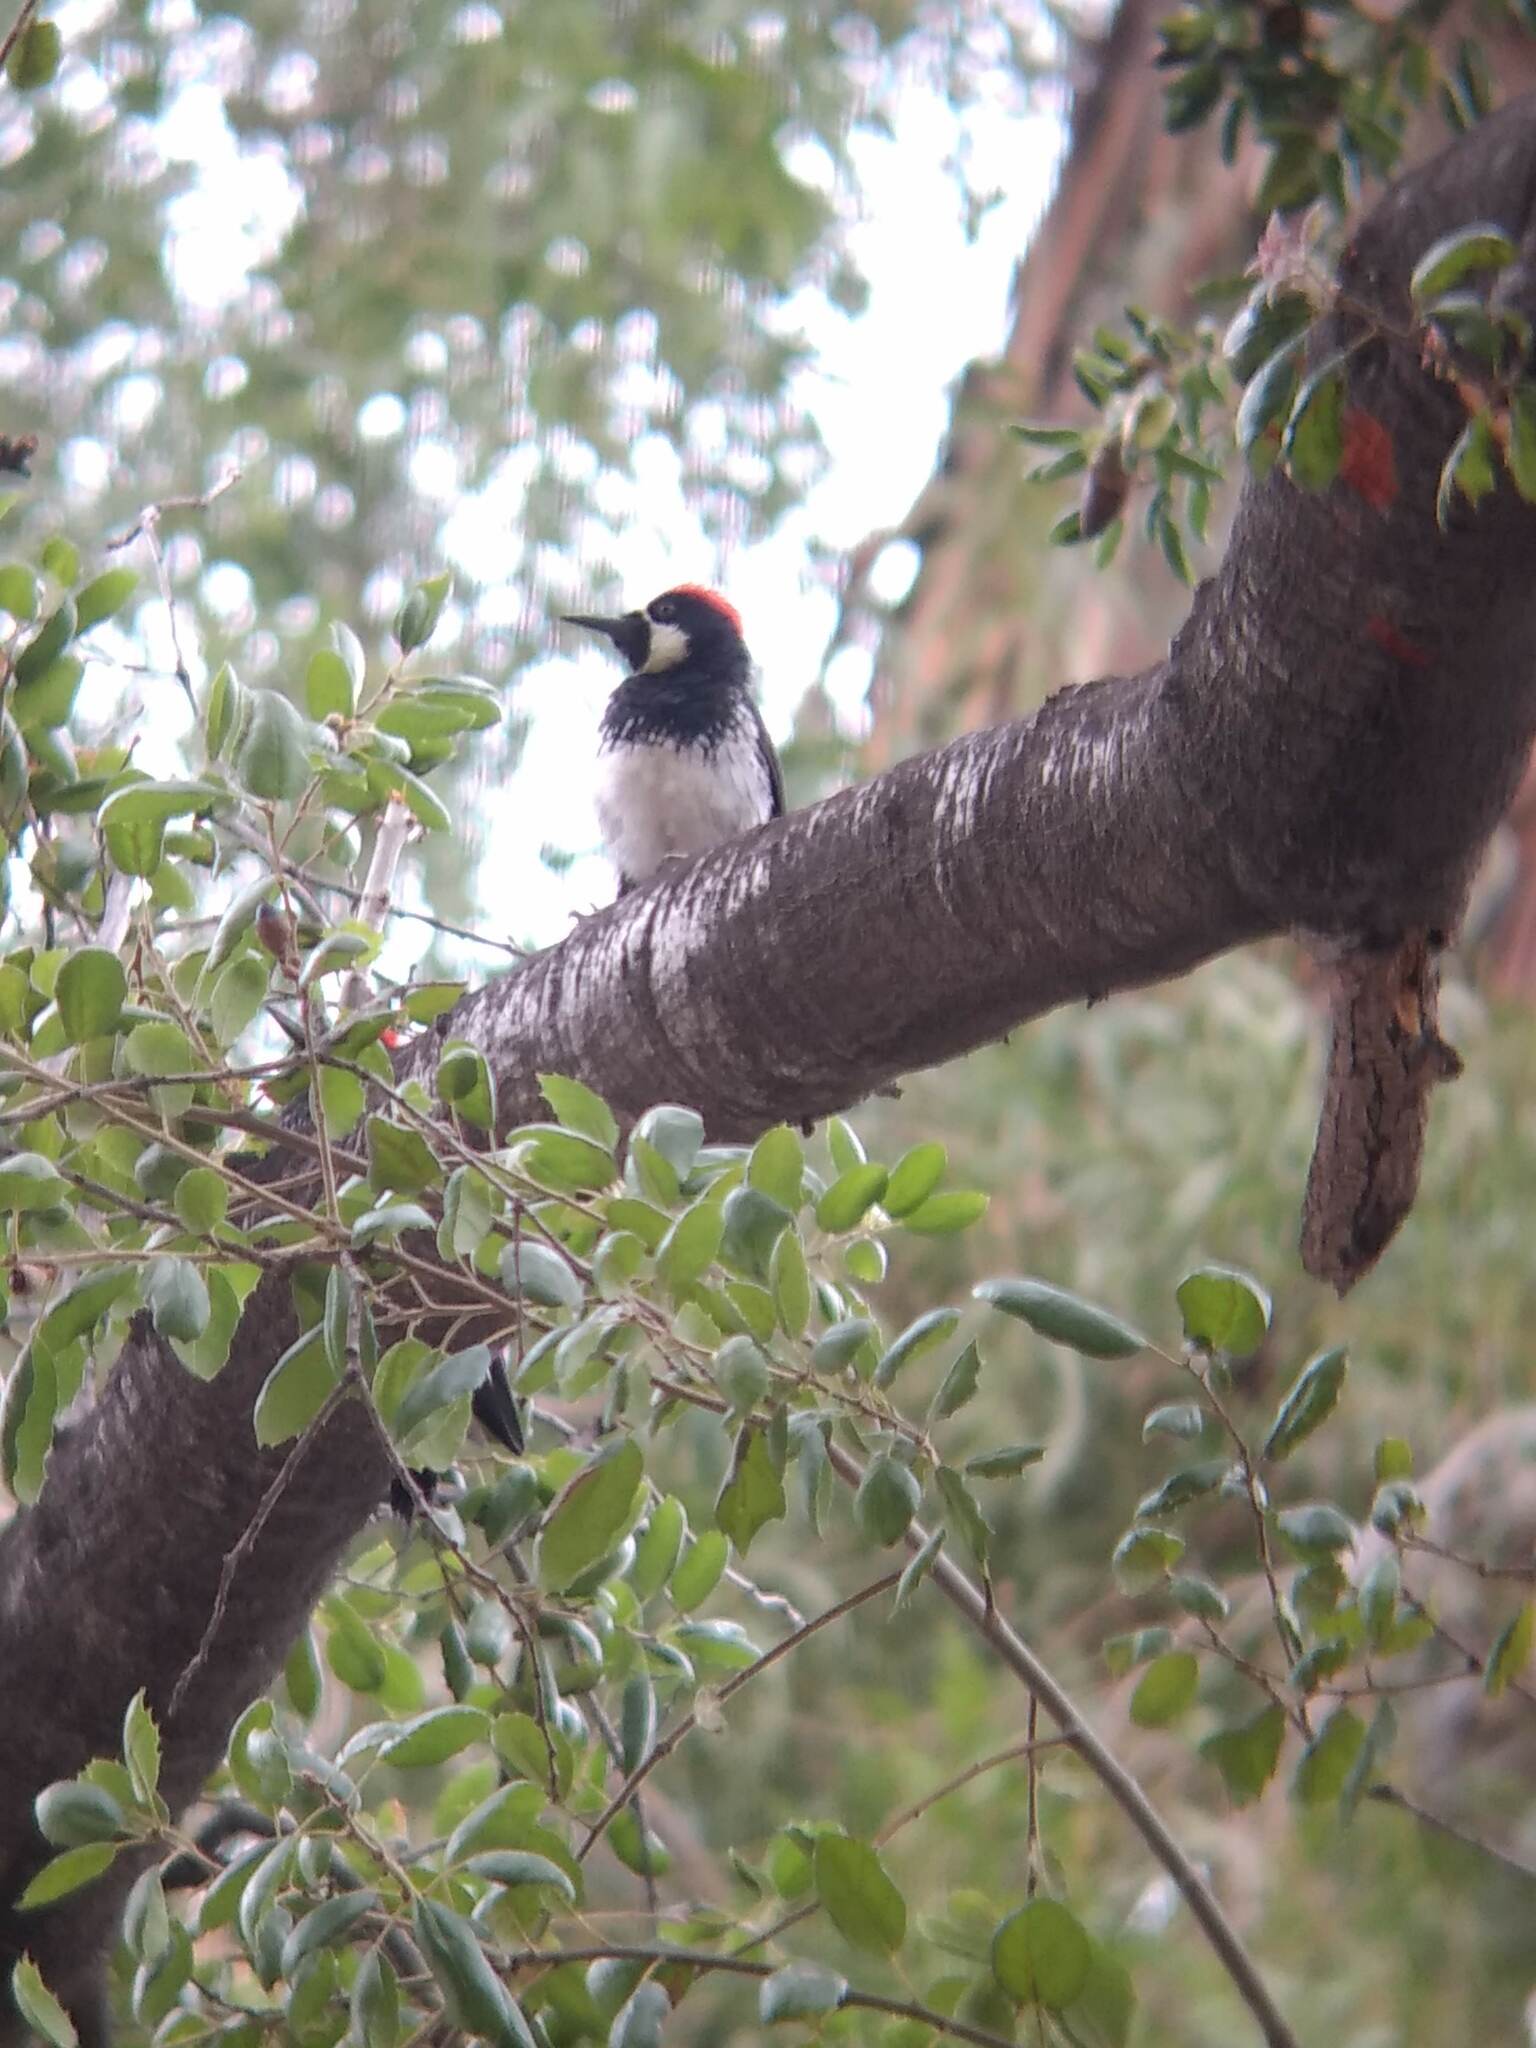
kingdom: Animalia
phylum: Chordata
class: Aves
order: Piciformes
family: Picidae
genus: Melanerpes
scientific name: Melanerpes formicivorus
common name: Acorn woodpecker
